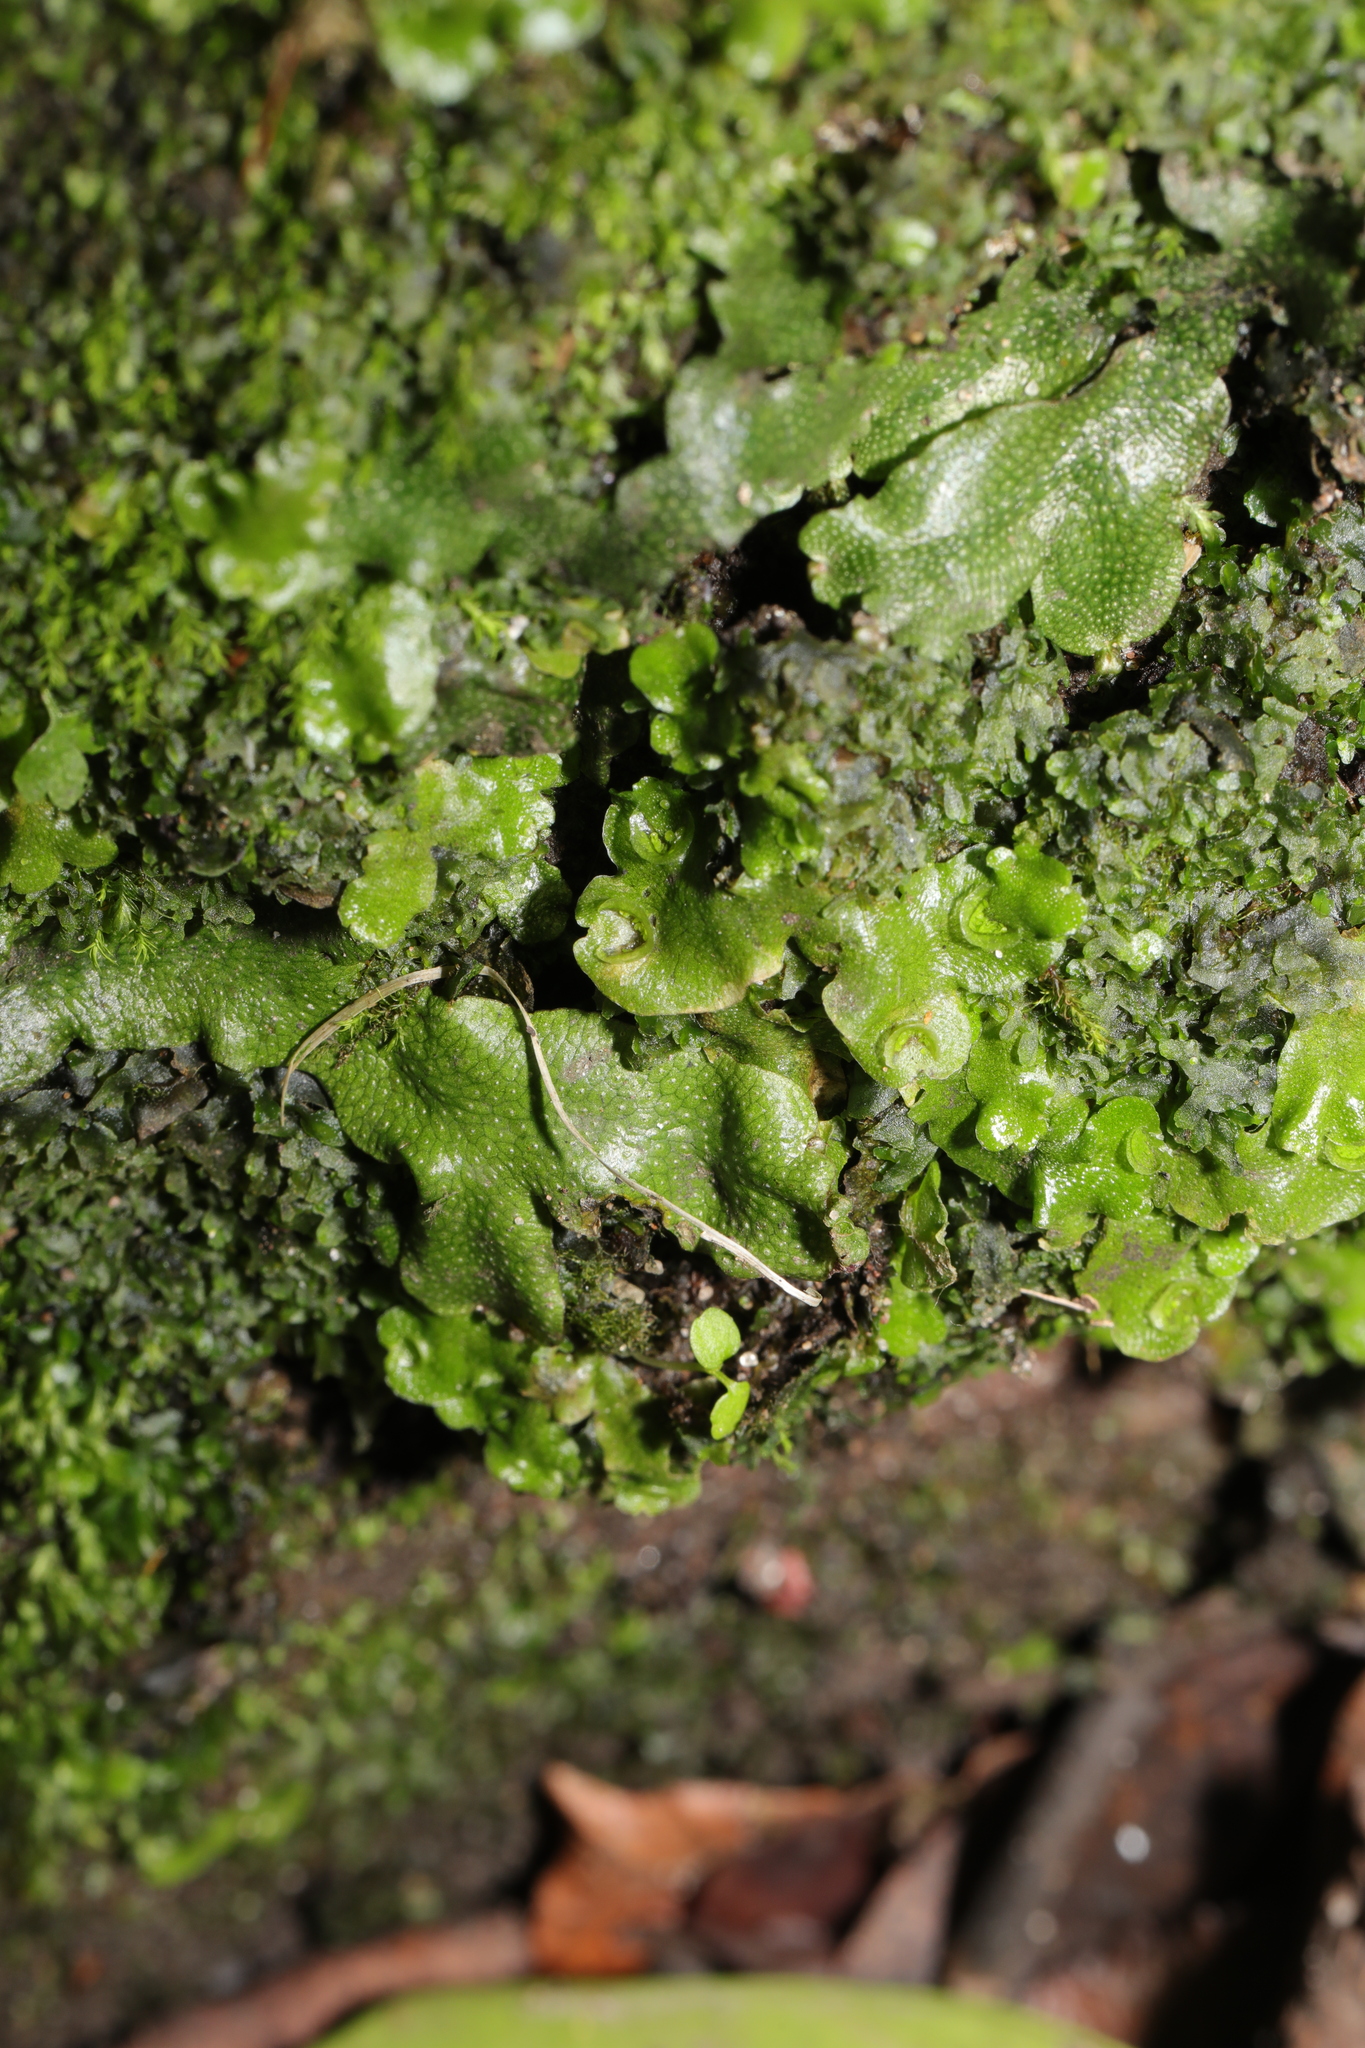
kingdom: Plantae
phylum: Marchantiophyta
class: Marchantiopsida
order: Lunulariales
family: Lunulariaceae
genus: Lunularia
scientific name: Lunularia cruciata
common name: Crescent-cup liverwort
